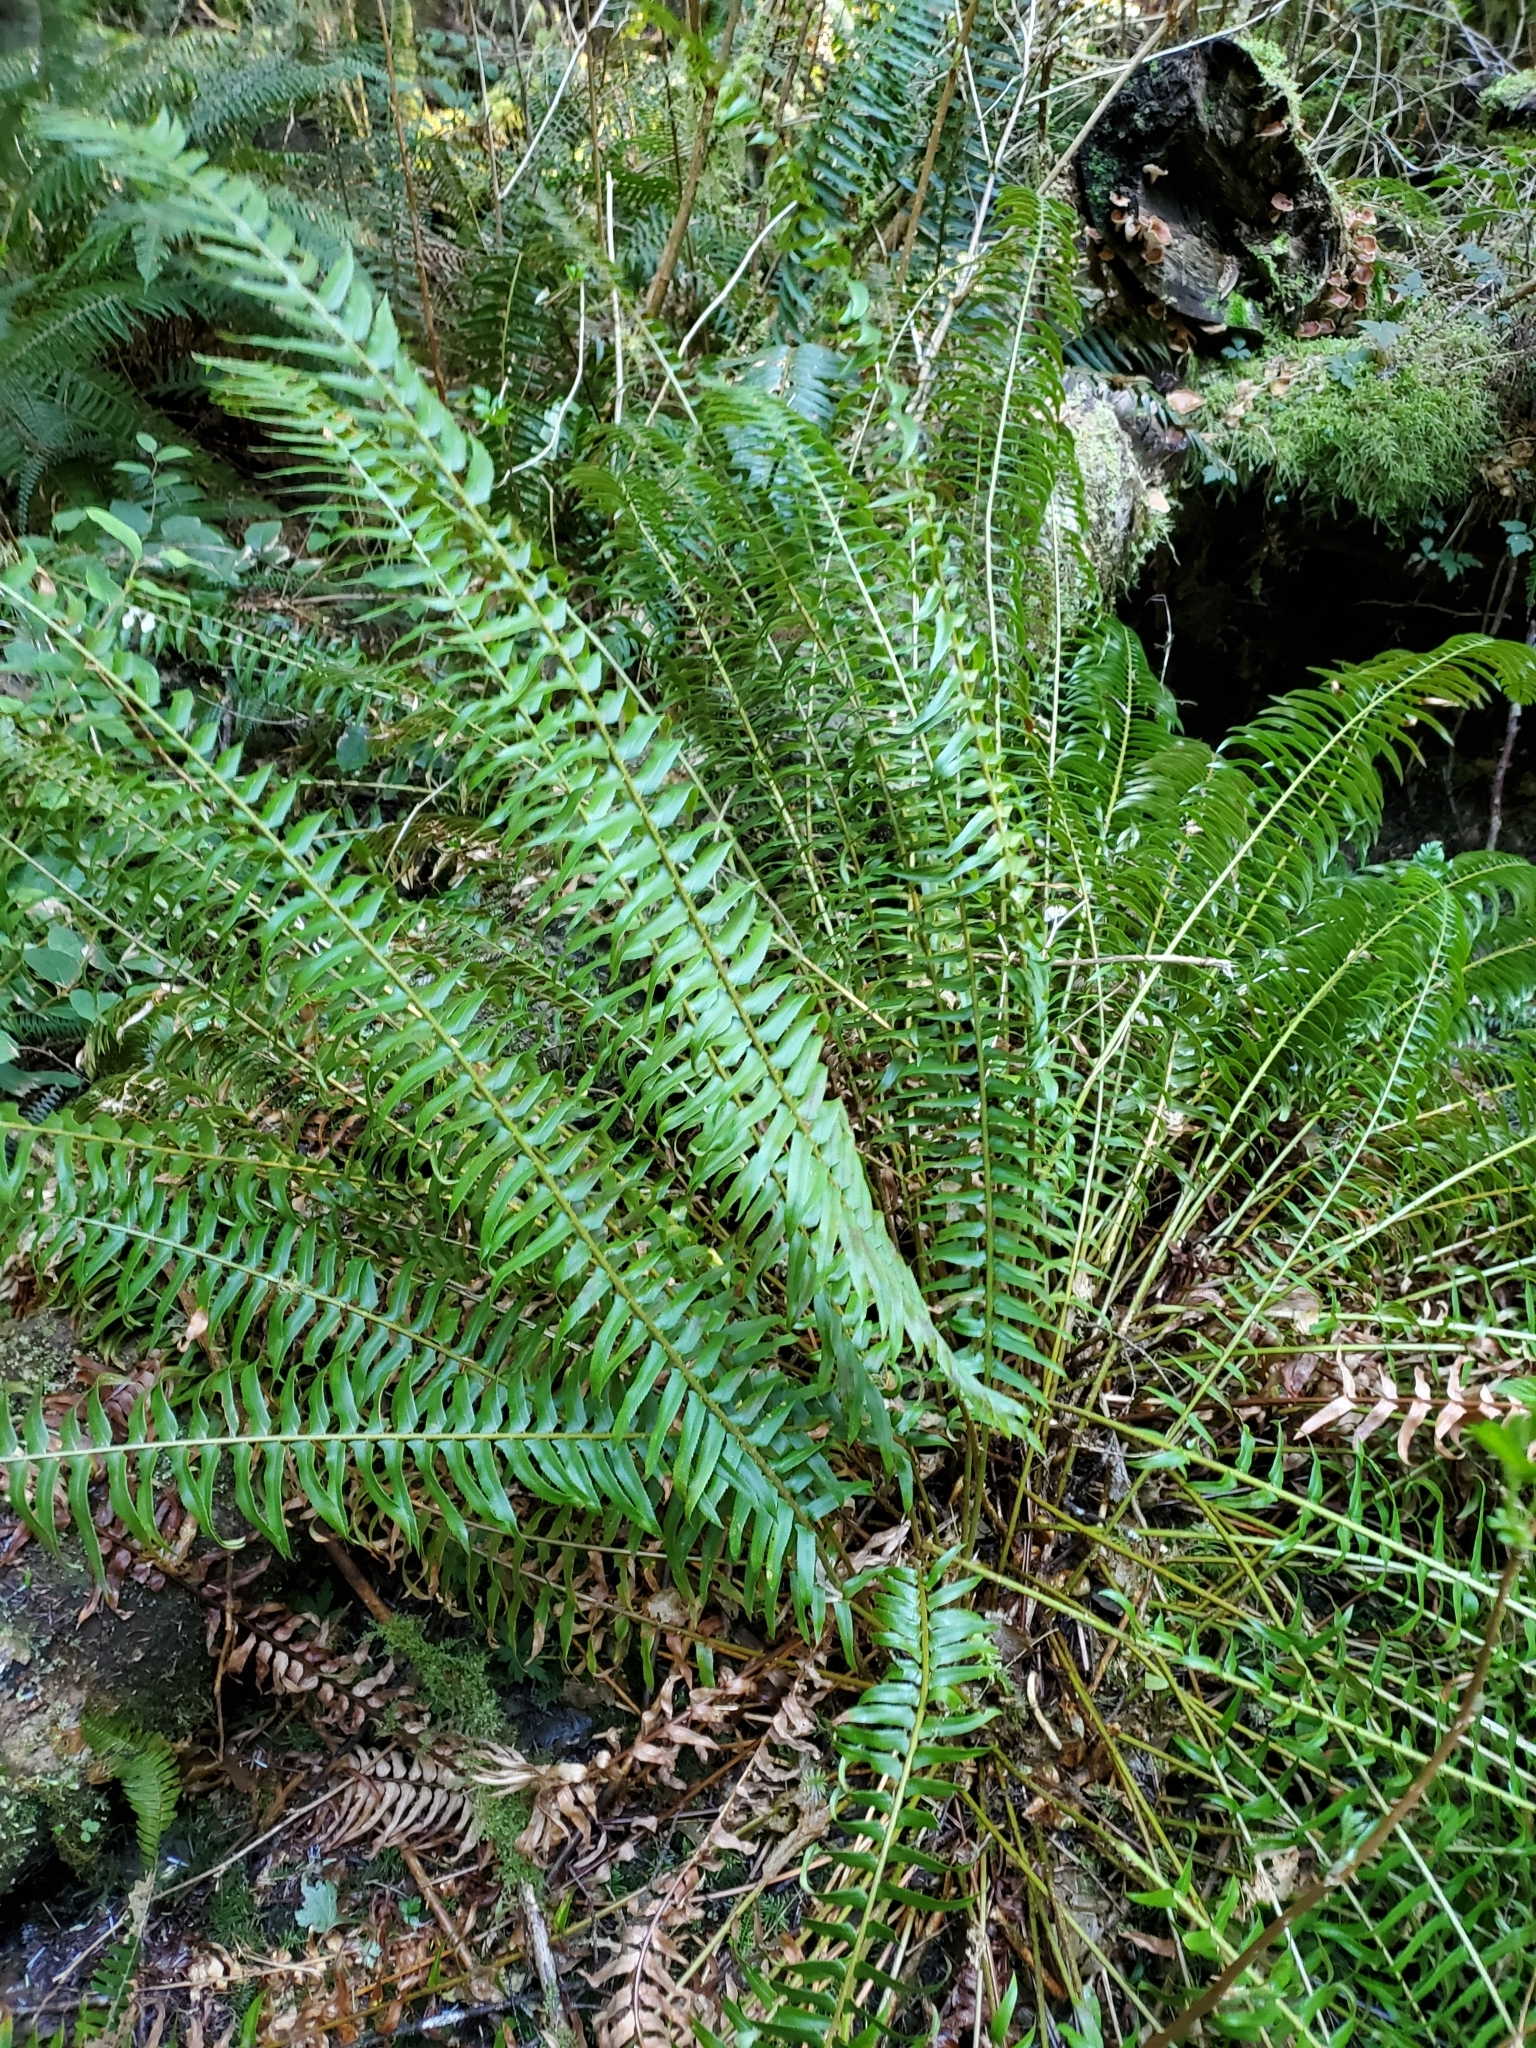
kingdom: Plantae
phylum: Tracheophyta
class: Polypodiopsida
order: Polypodiales
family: Dryopteridaceae
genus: Polystichum
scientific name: Polystichum munitum
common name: Western sword-fern
